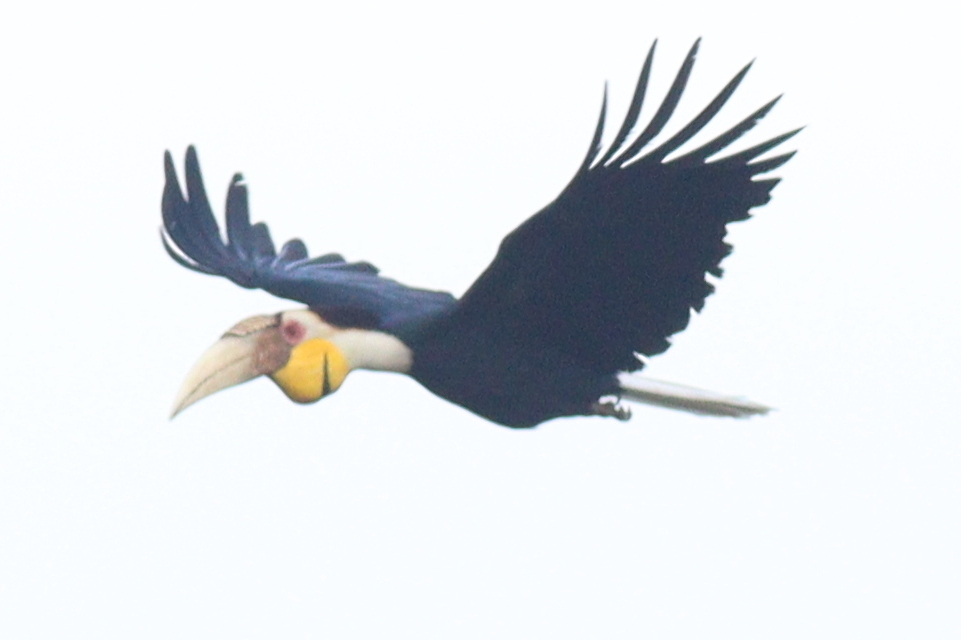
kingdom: Animalia
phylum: Chordata
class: Aves
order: Bucerotiformes
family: Bucerotidae
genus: Rhyticeros
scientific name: Rhyticeros undulatus
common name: Wreathed hornbill
